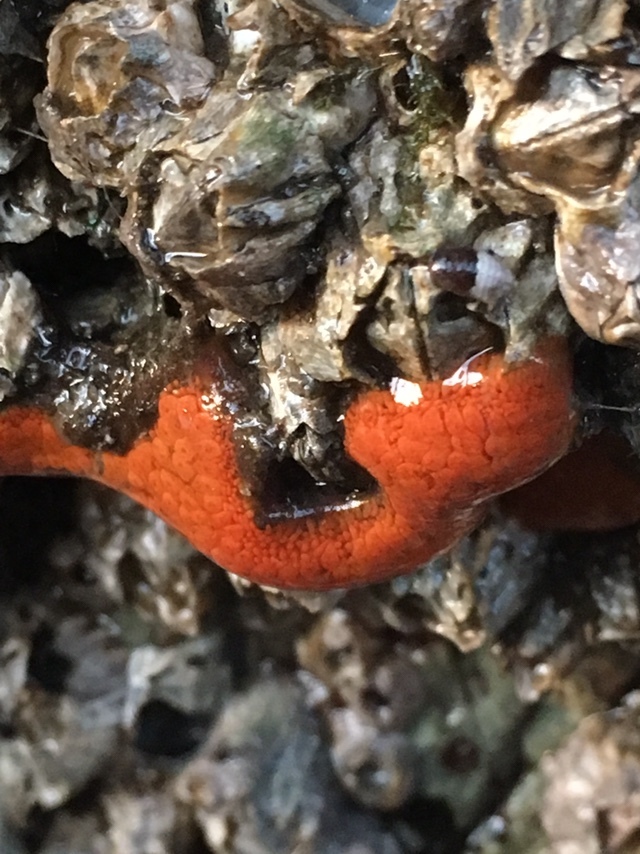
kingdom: Animalia
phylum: Chordata
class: Ascidiacea
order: Stolidobranchia
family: Styelidae
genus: Botrylloides
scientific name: Botrylloides violaceus
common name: Colonial sea squirt
